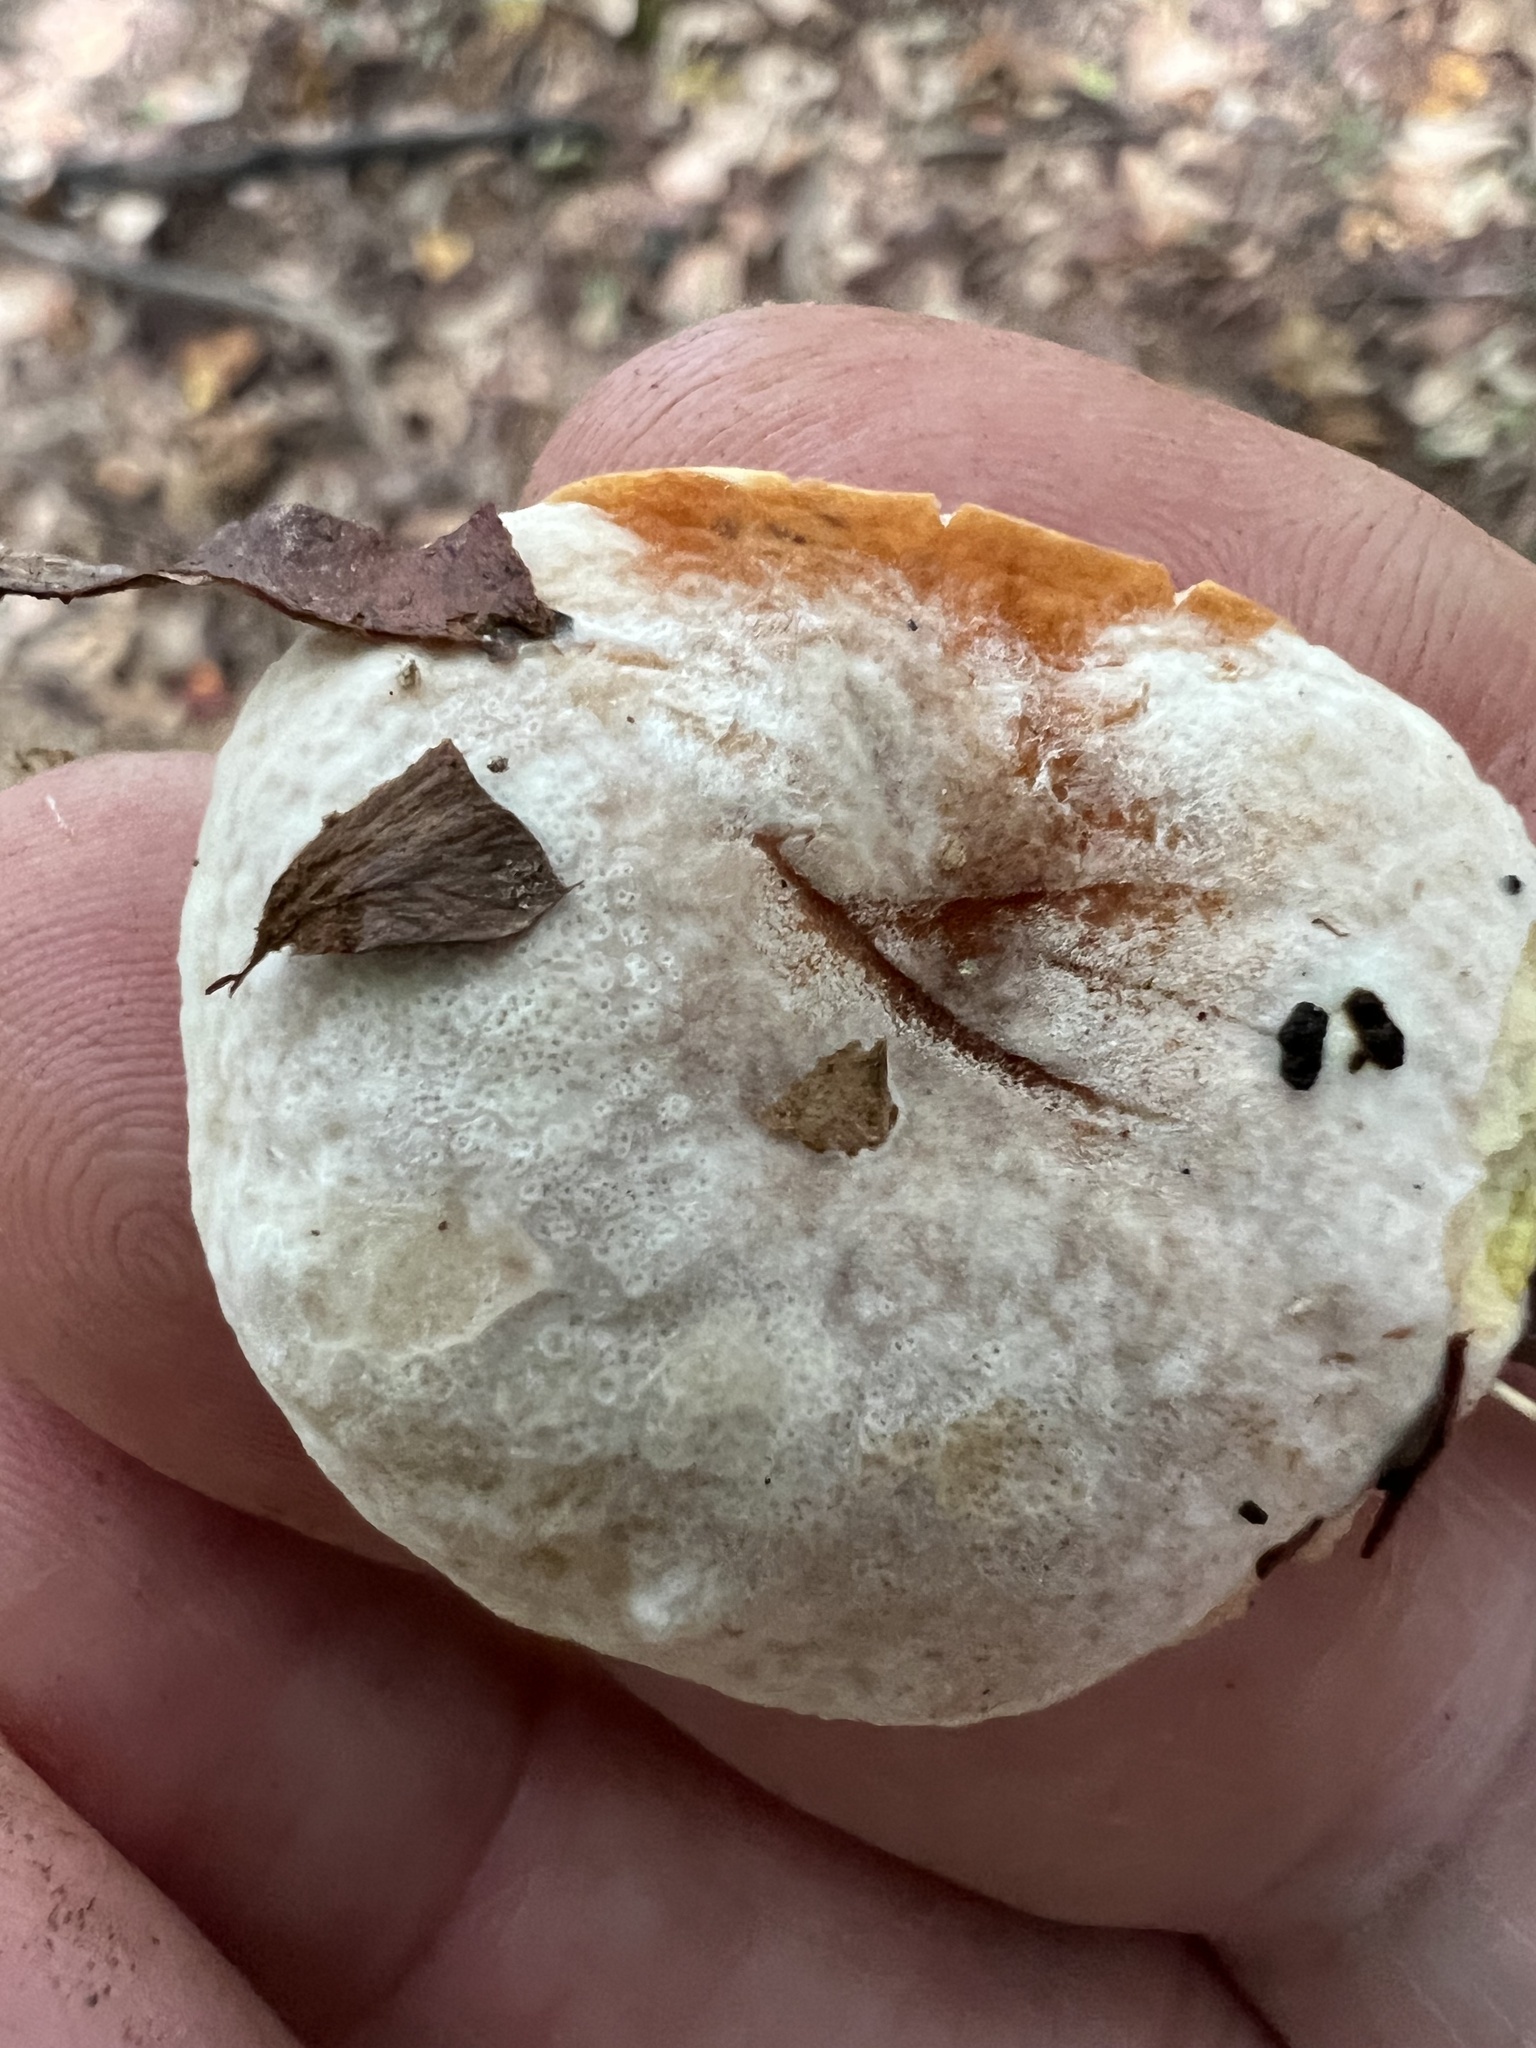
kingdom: Fungi
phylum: Ascomycota
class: Sordariomycetes
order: Hypocreales
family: Hypocreaceae
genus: Hypomyces
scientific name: Hypomyces chrysospermus
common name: Bolete mould
